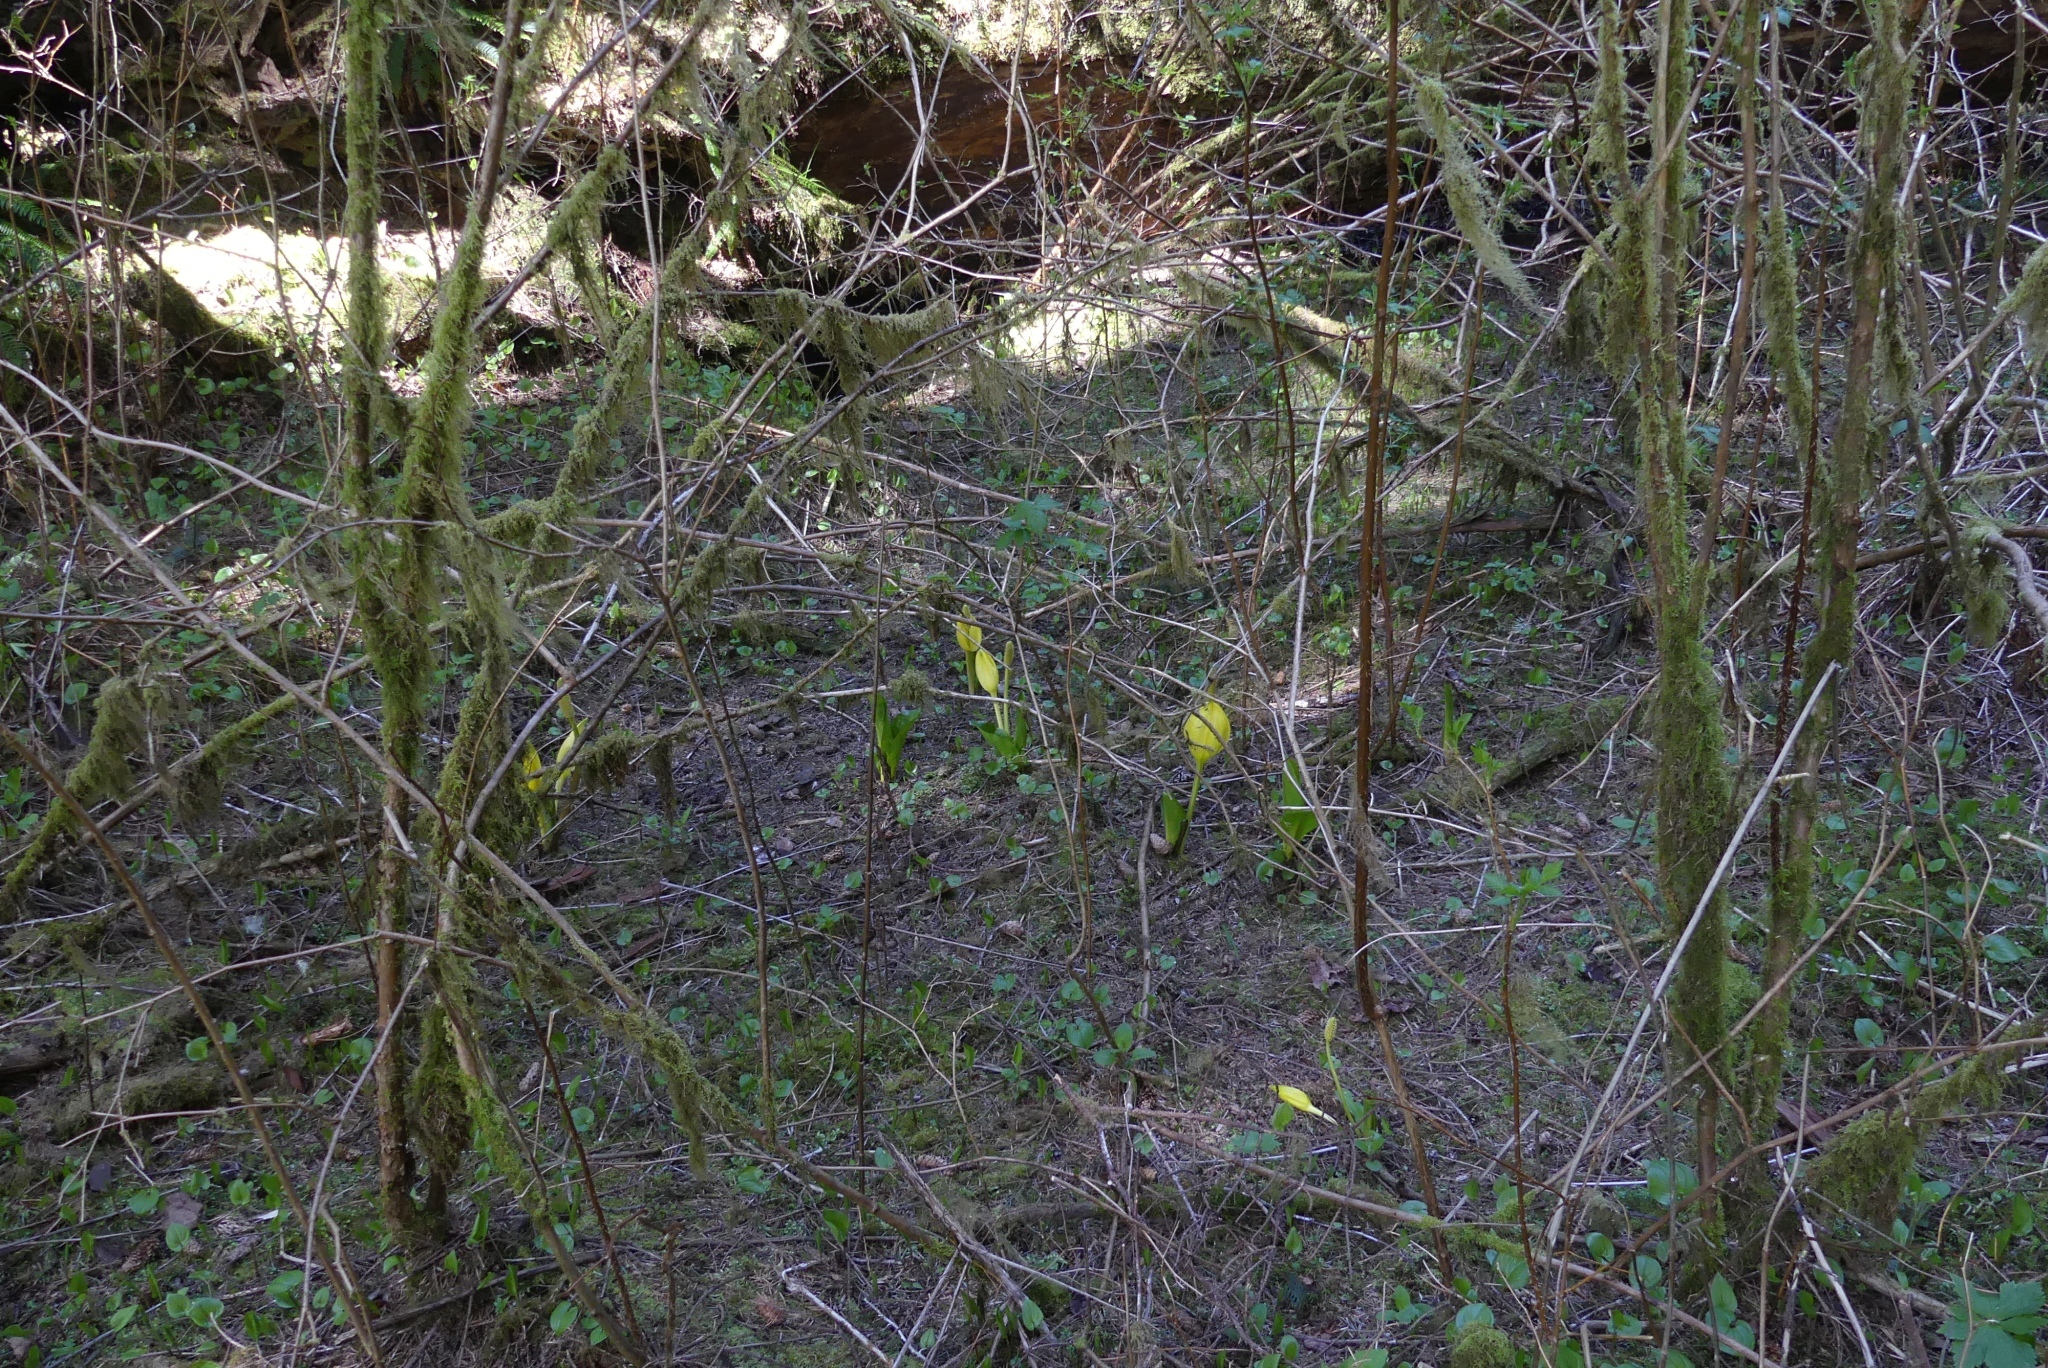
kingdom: Plantae
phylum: Tracheophyta
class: Liliopsida
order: Alismatales
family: Araceae
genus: Lysichiton
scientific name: Lysichiton americanus
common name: American skunk cabbage
